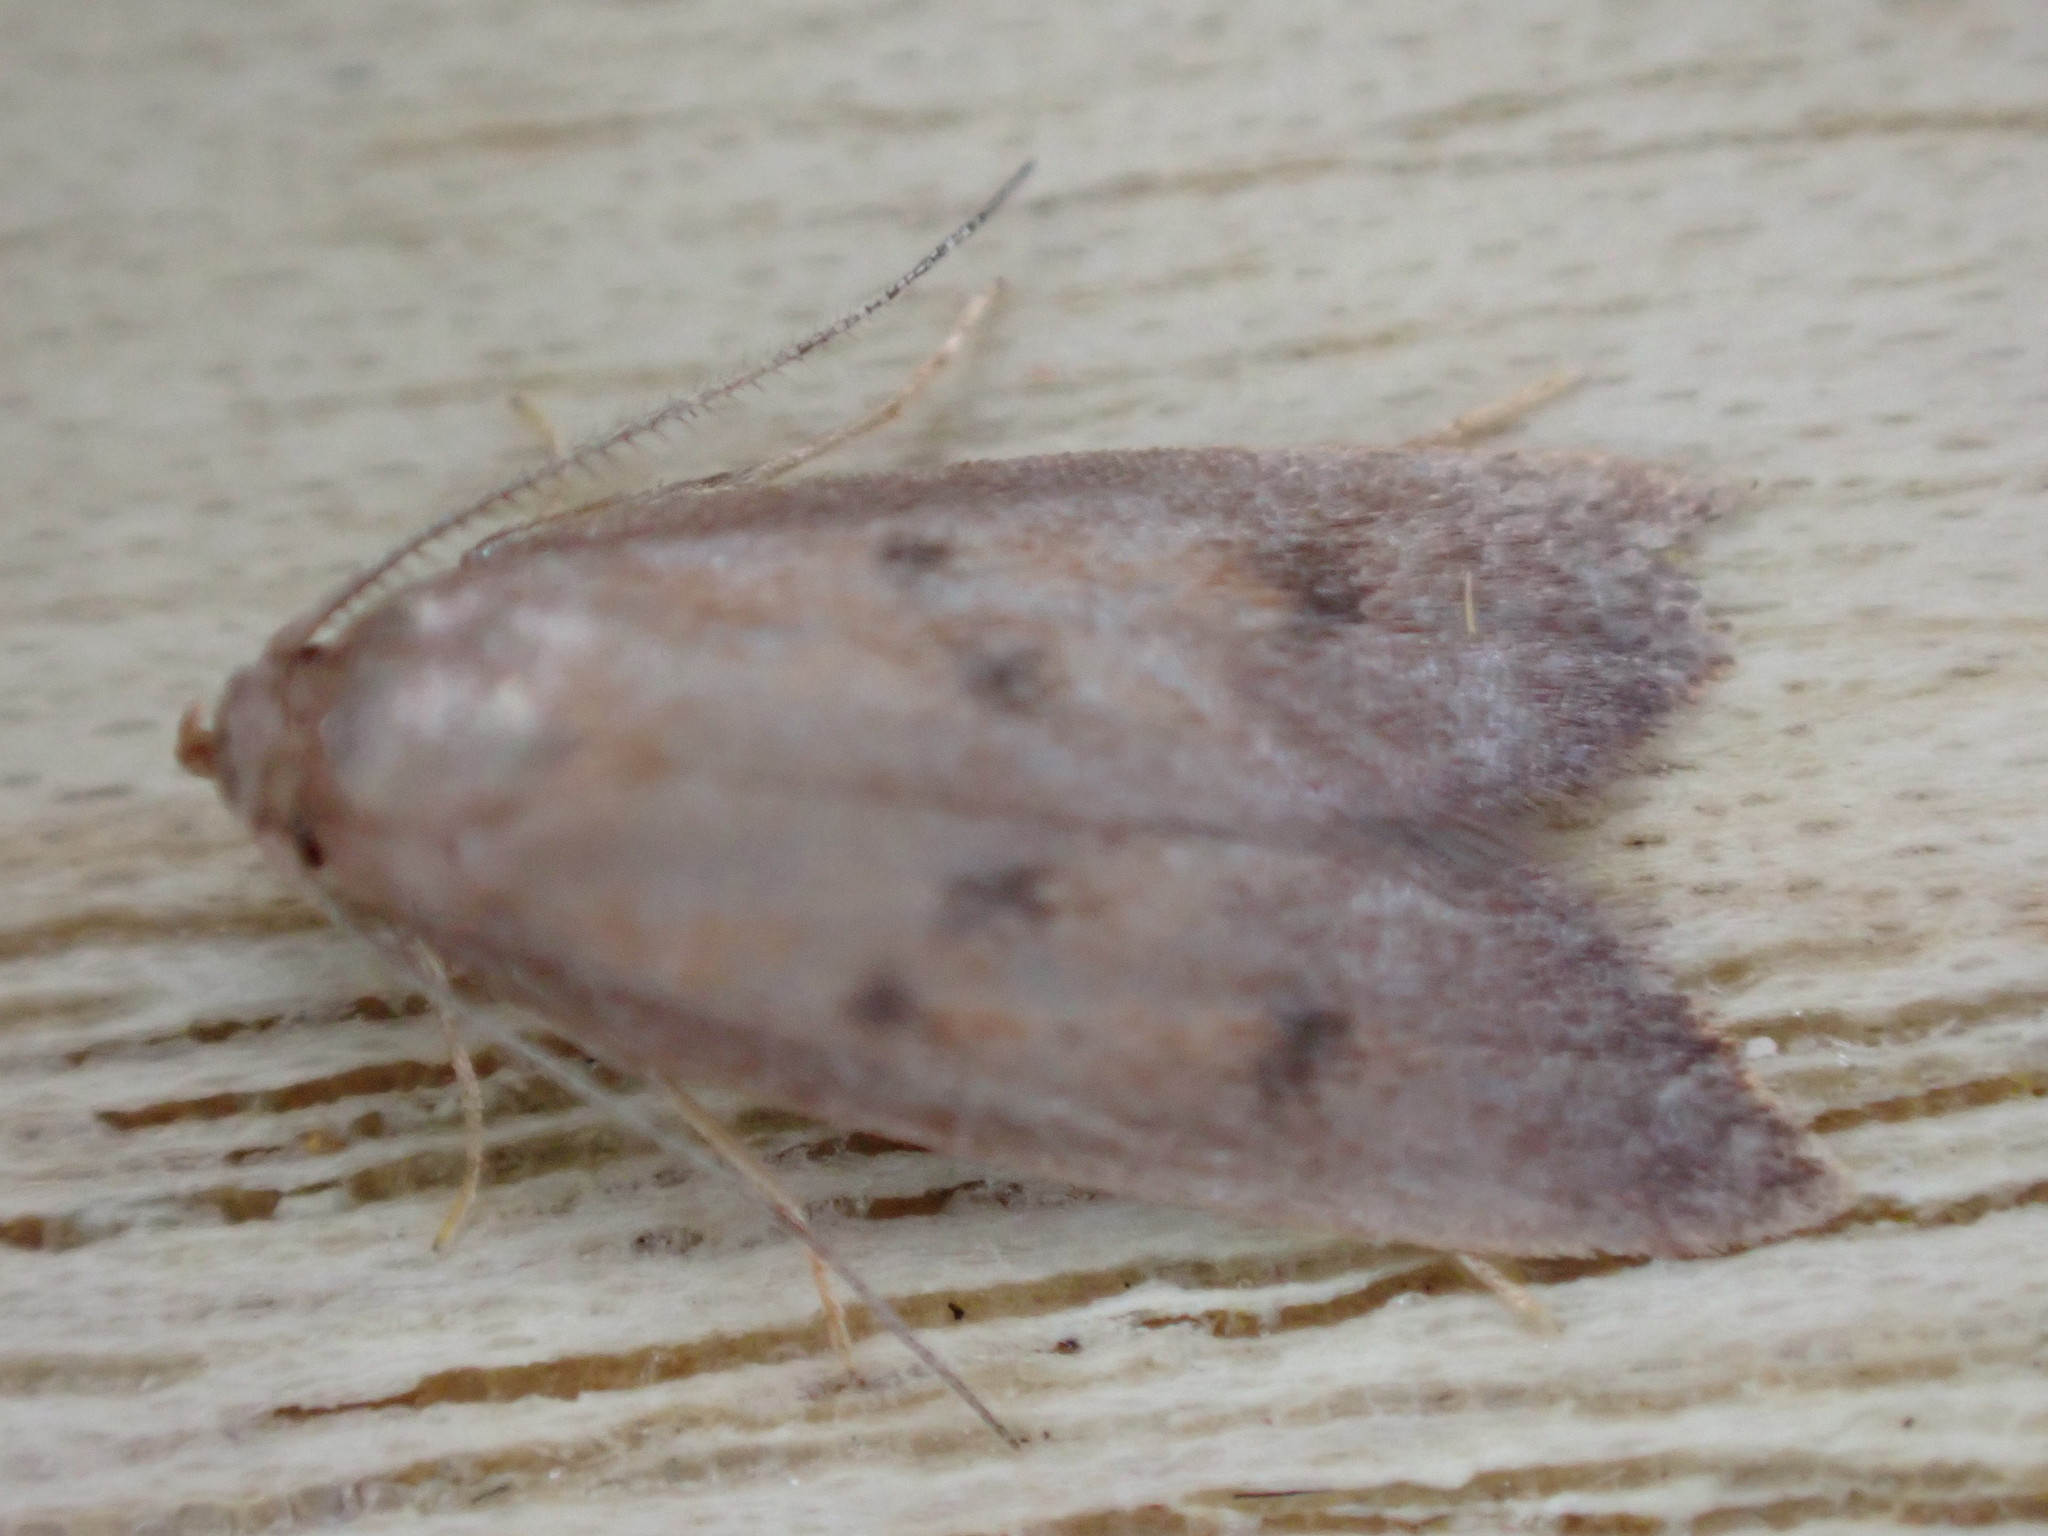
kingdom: Animalia
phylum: Arthropoda
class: Insecta
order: Lepidoptera
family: Oecophoridae
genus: Tachystola
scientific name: Tachystola acroxantha
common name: Ruddy streak
